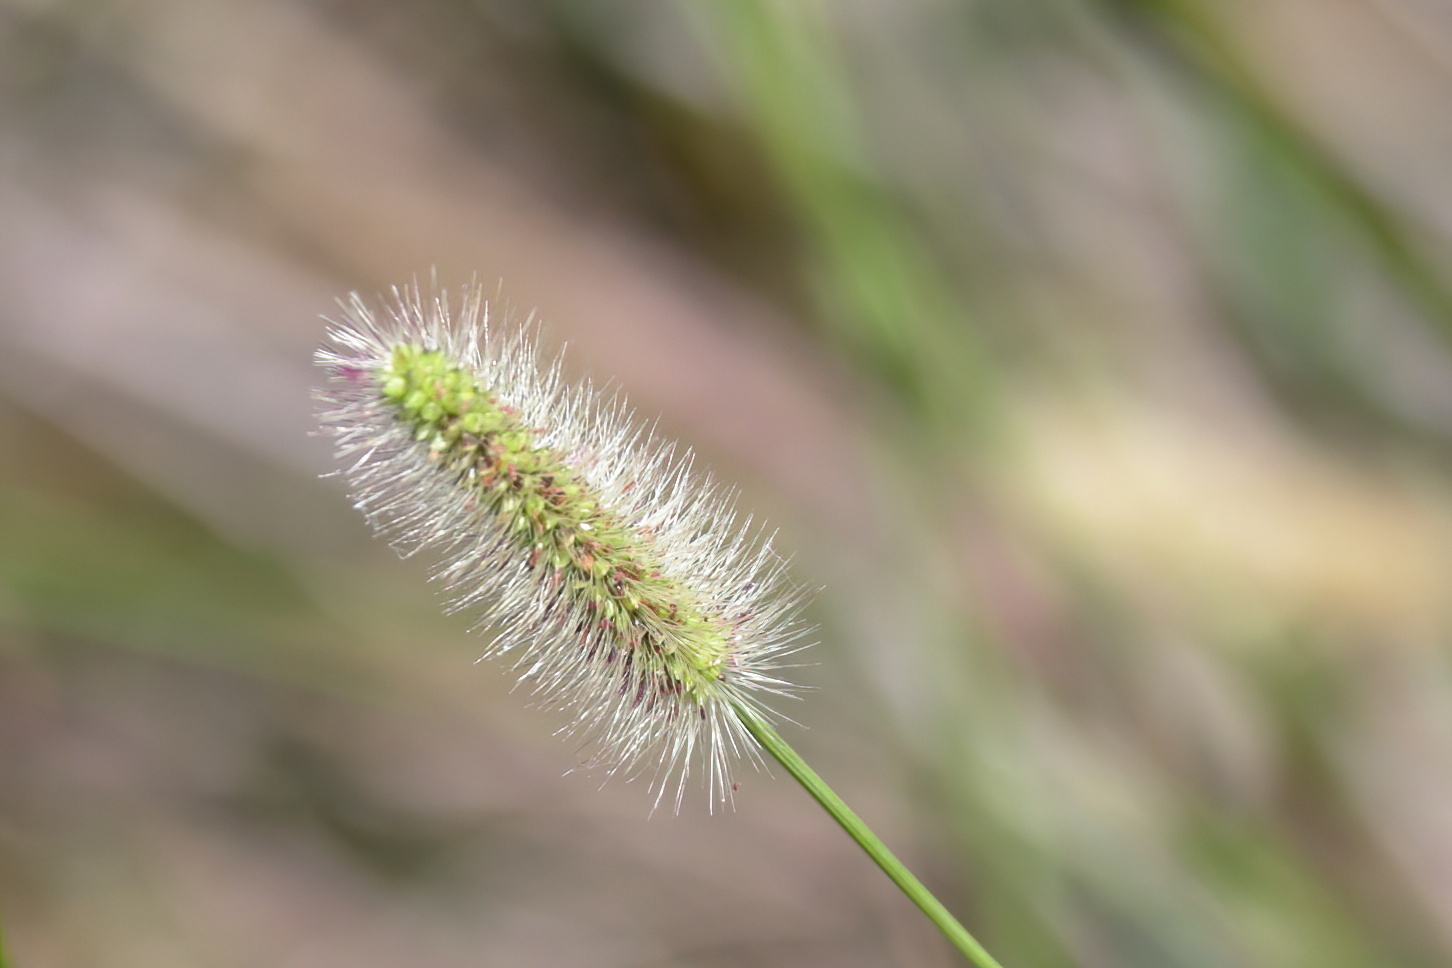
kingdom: Plantae
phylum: Tracheophyta
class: Liliopsida
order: Poales
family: Poaceae
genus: Setaria
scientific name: Setaria parviflora
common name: Knotroot bristle-grass
